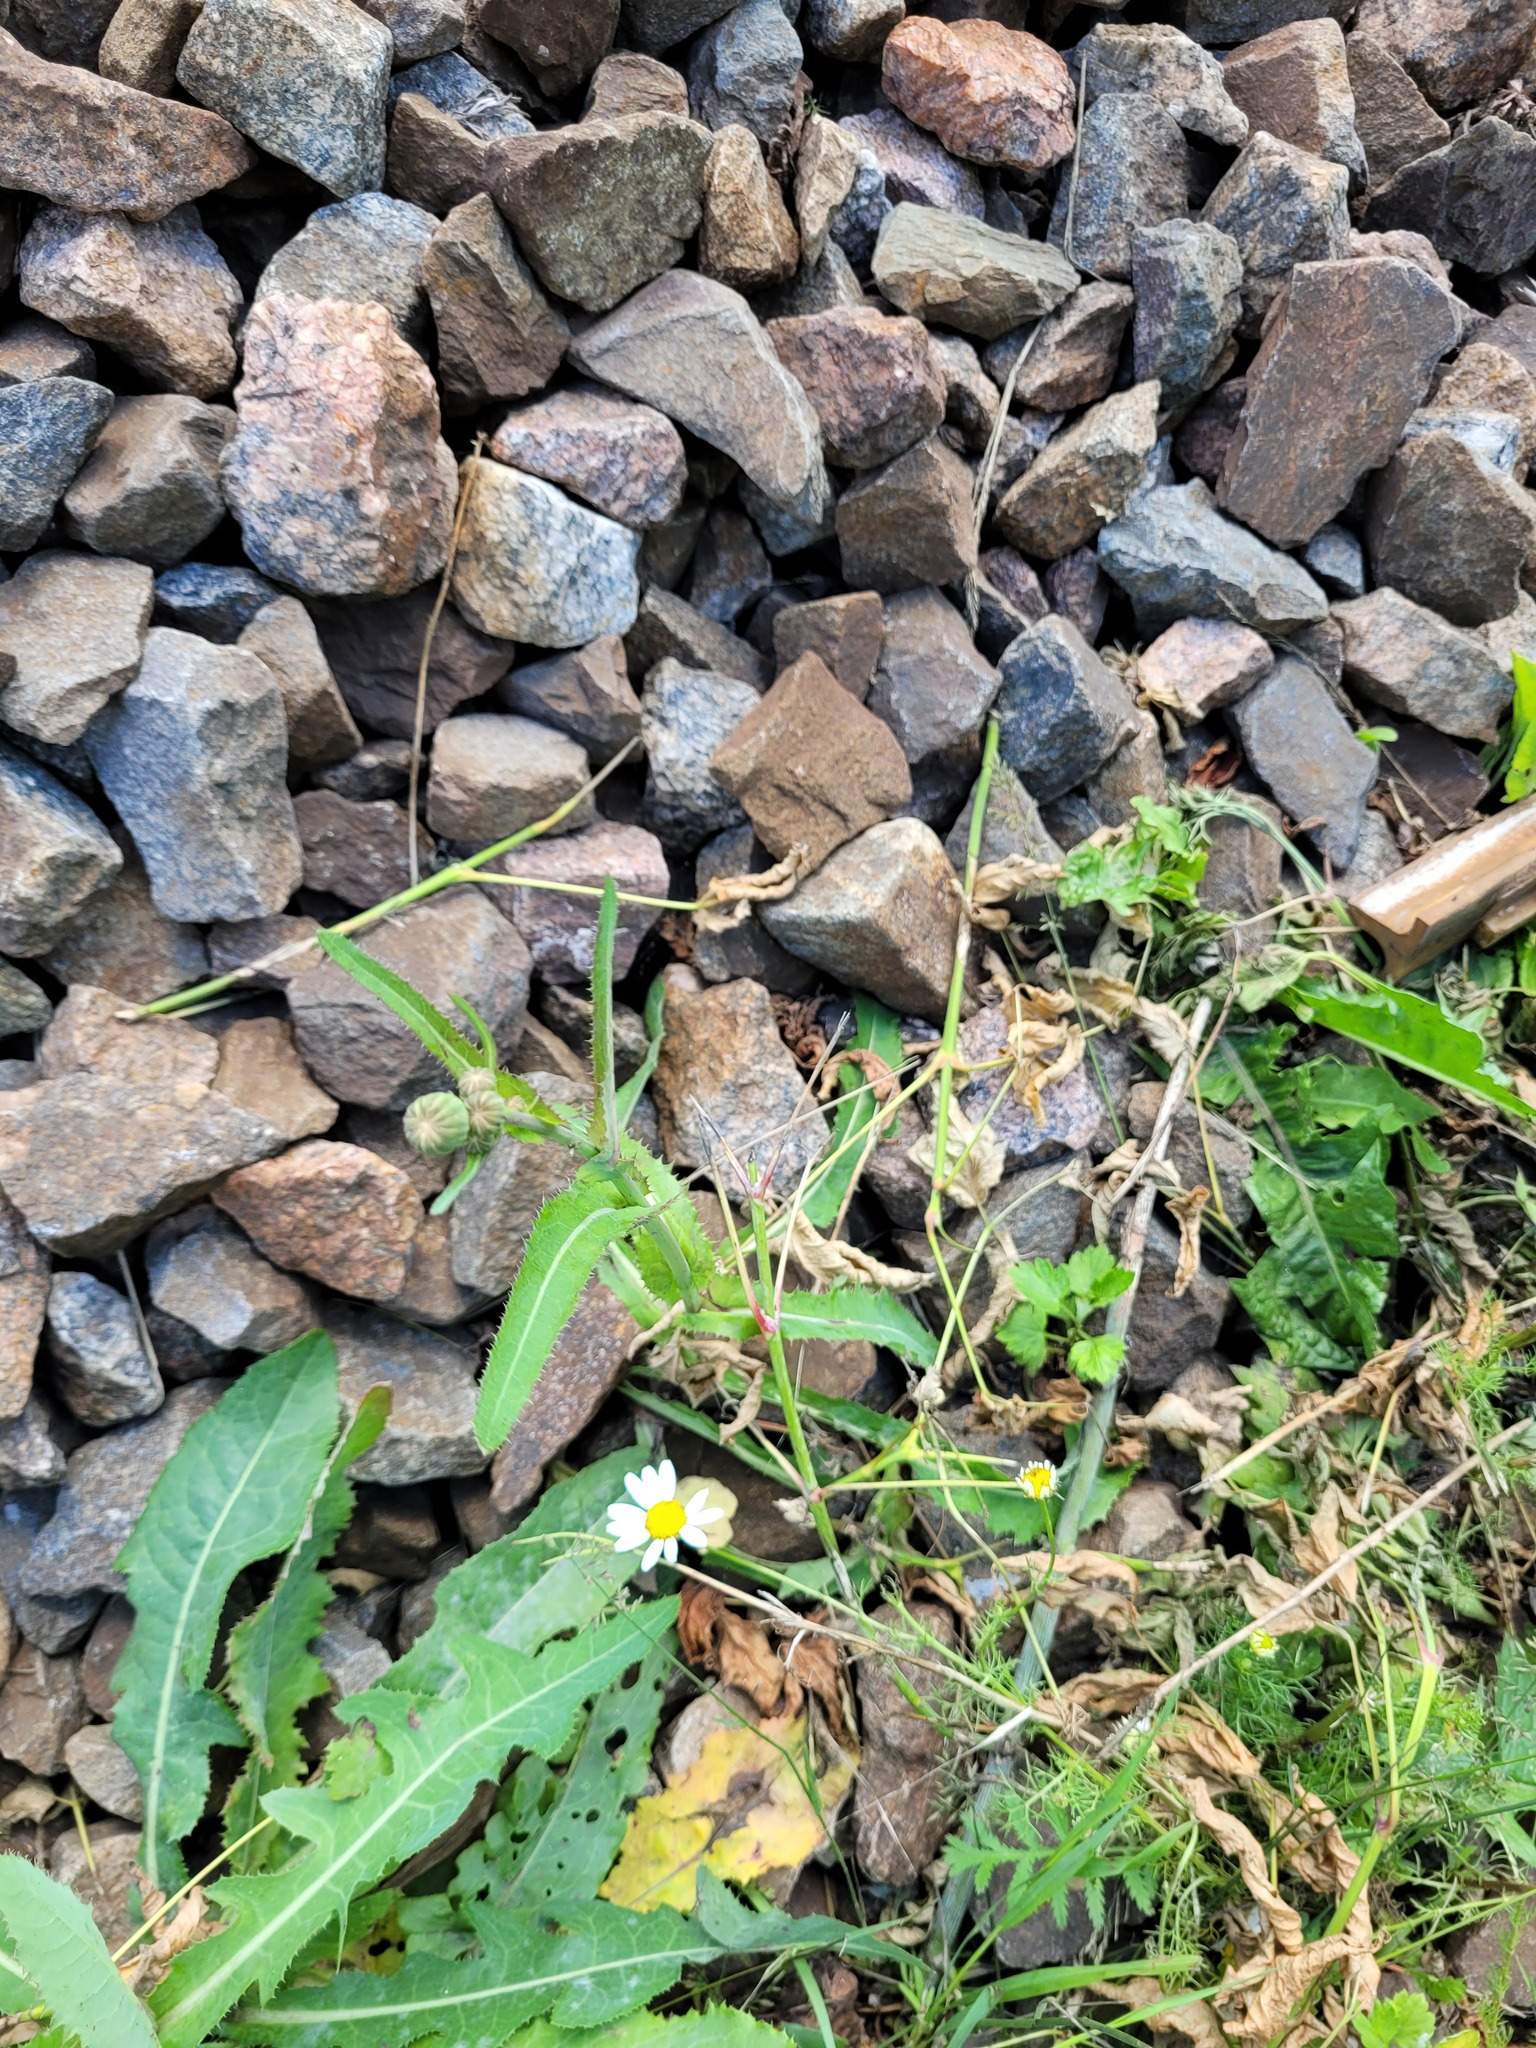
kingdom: Plantae
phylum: Tracheophyta
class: Magnoliopsida
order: Asterales
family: Asteraceae
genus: Sonchus
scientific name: Sonchus arvensis
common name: Perennial sow-thistle
